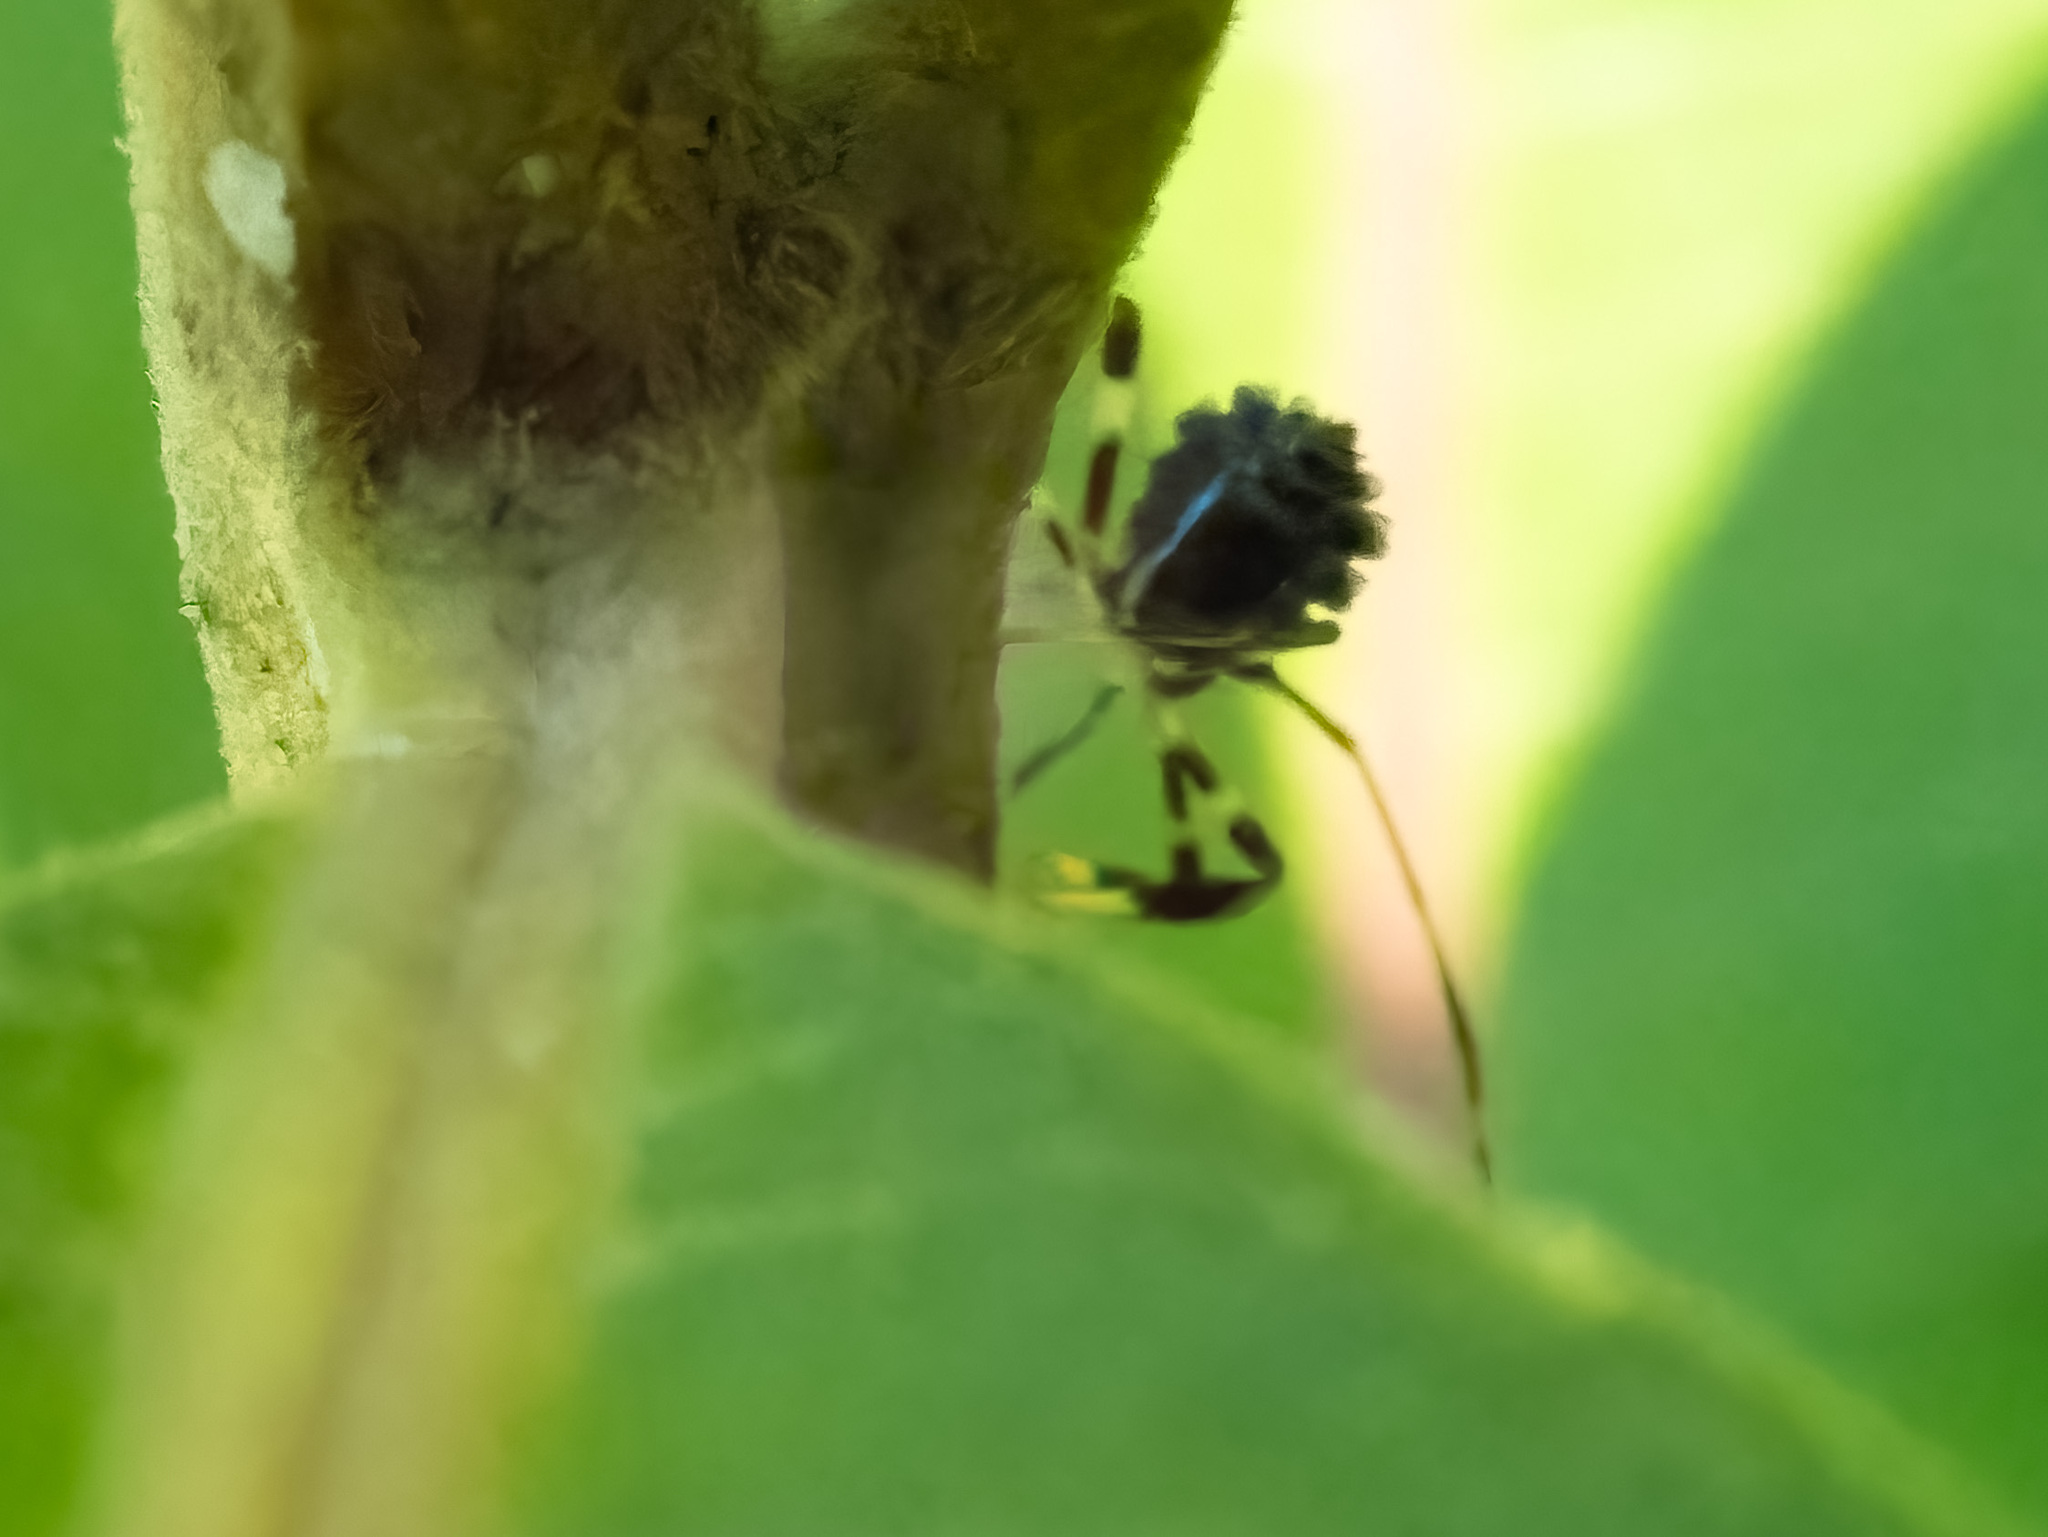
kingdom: Animalia
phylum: Arthropoda
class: Insecta
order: Hemiptera
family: Coreidae
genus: Acanthocephala
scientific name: Acanthocephala terminalis
